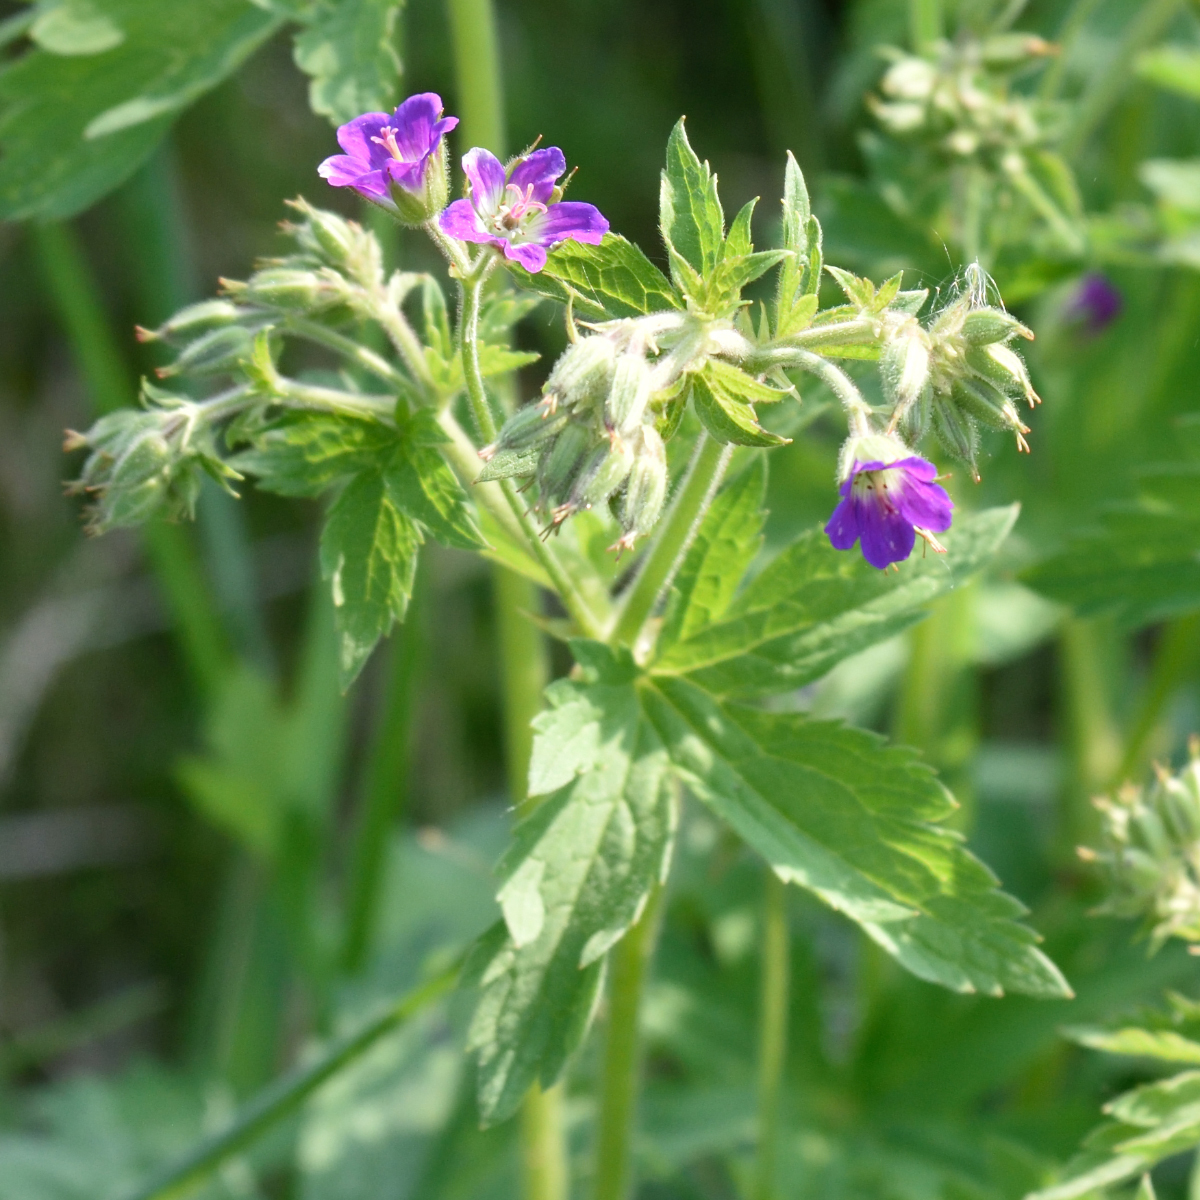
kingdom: Plantae
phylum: Tracheophyta
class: Magnoliopsida
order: Geraniales
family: Geraniaceae
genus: Geranium
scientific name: Geranium sylvaticum
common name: Wood crane's-bill
